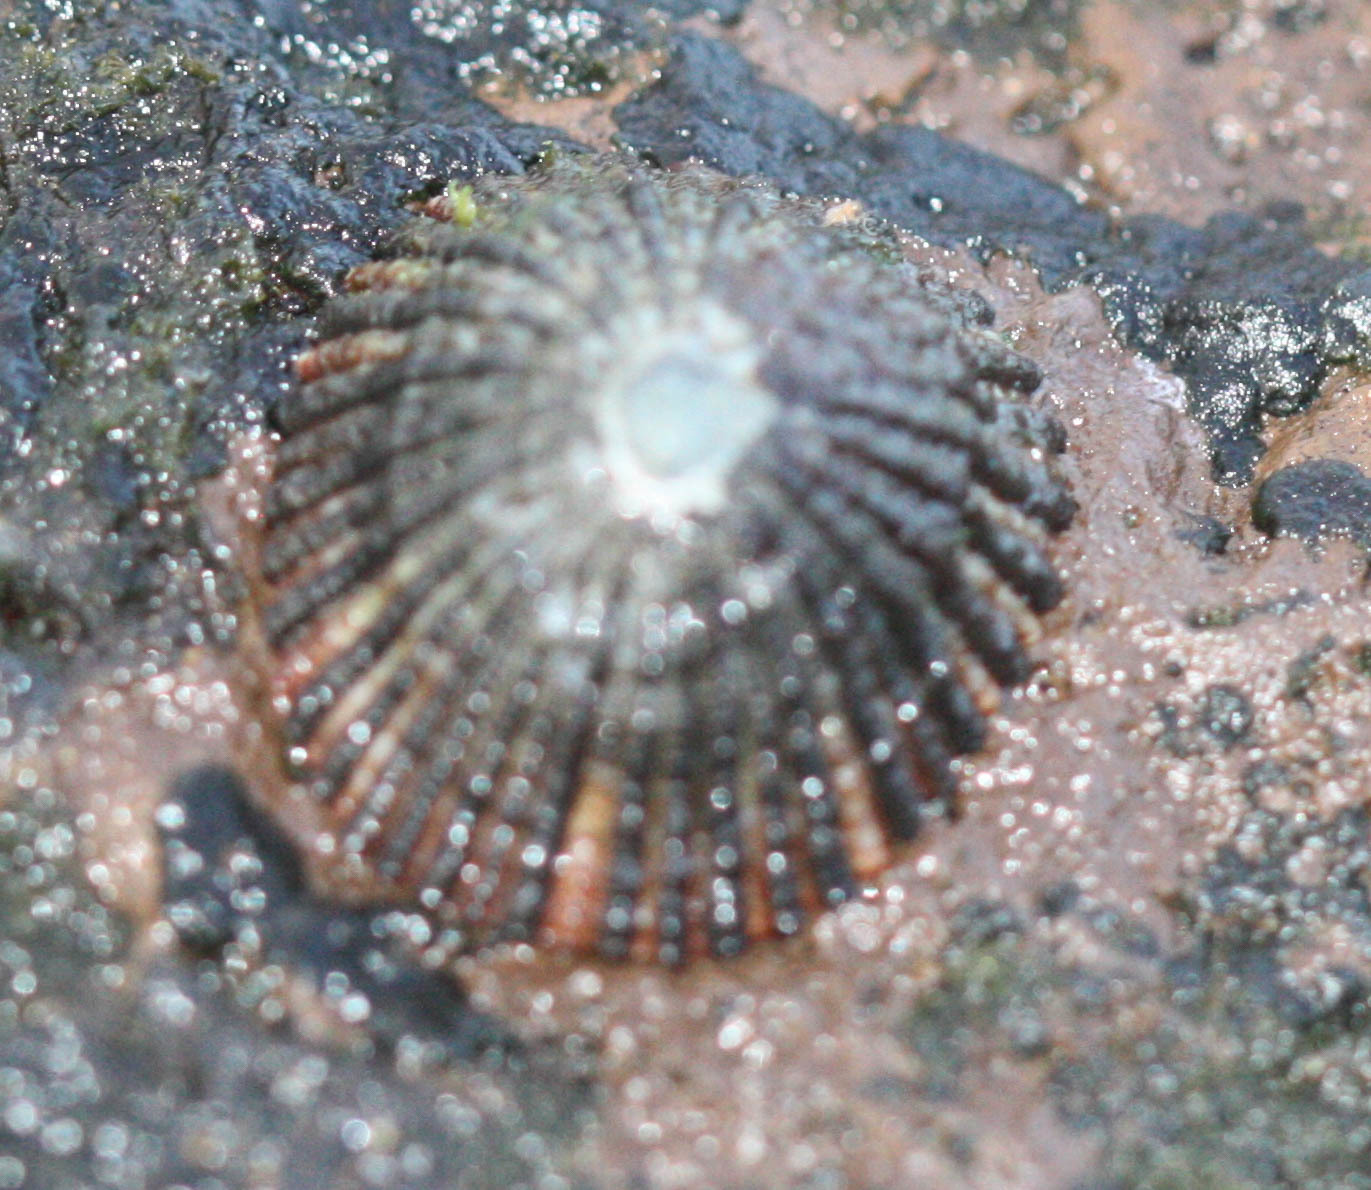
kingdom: Animalia
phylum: Mollusca
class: Gastropoda
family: Nacellidae
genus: Cellana
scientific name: Cellana exarata
